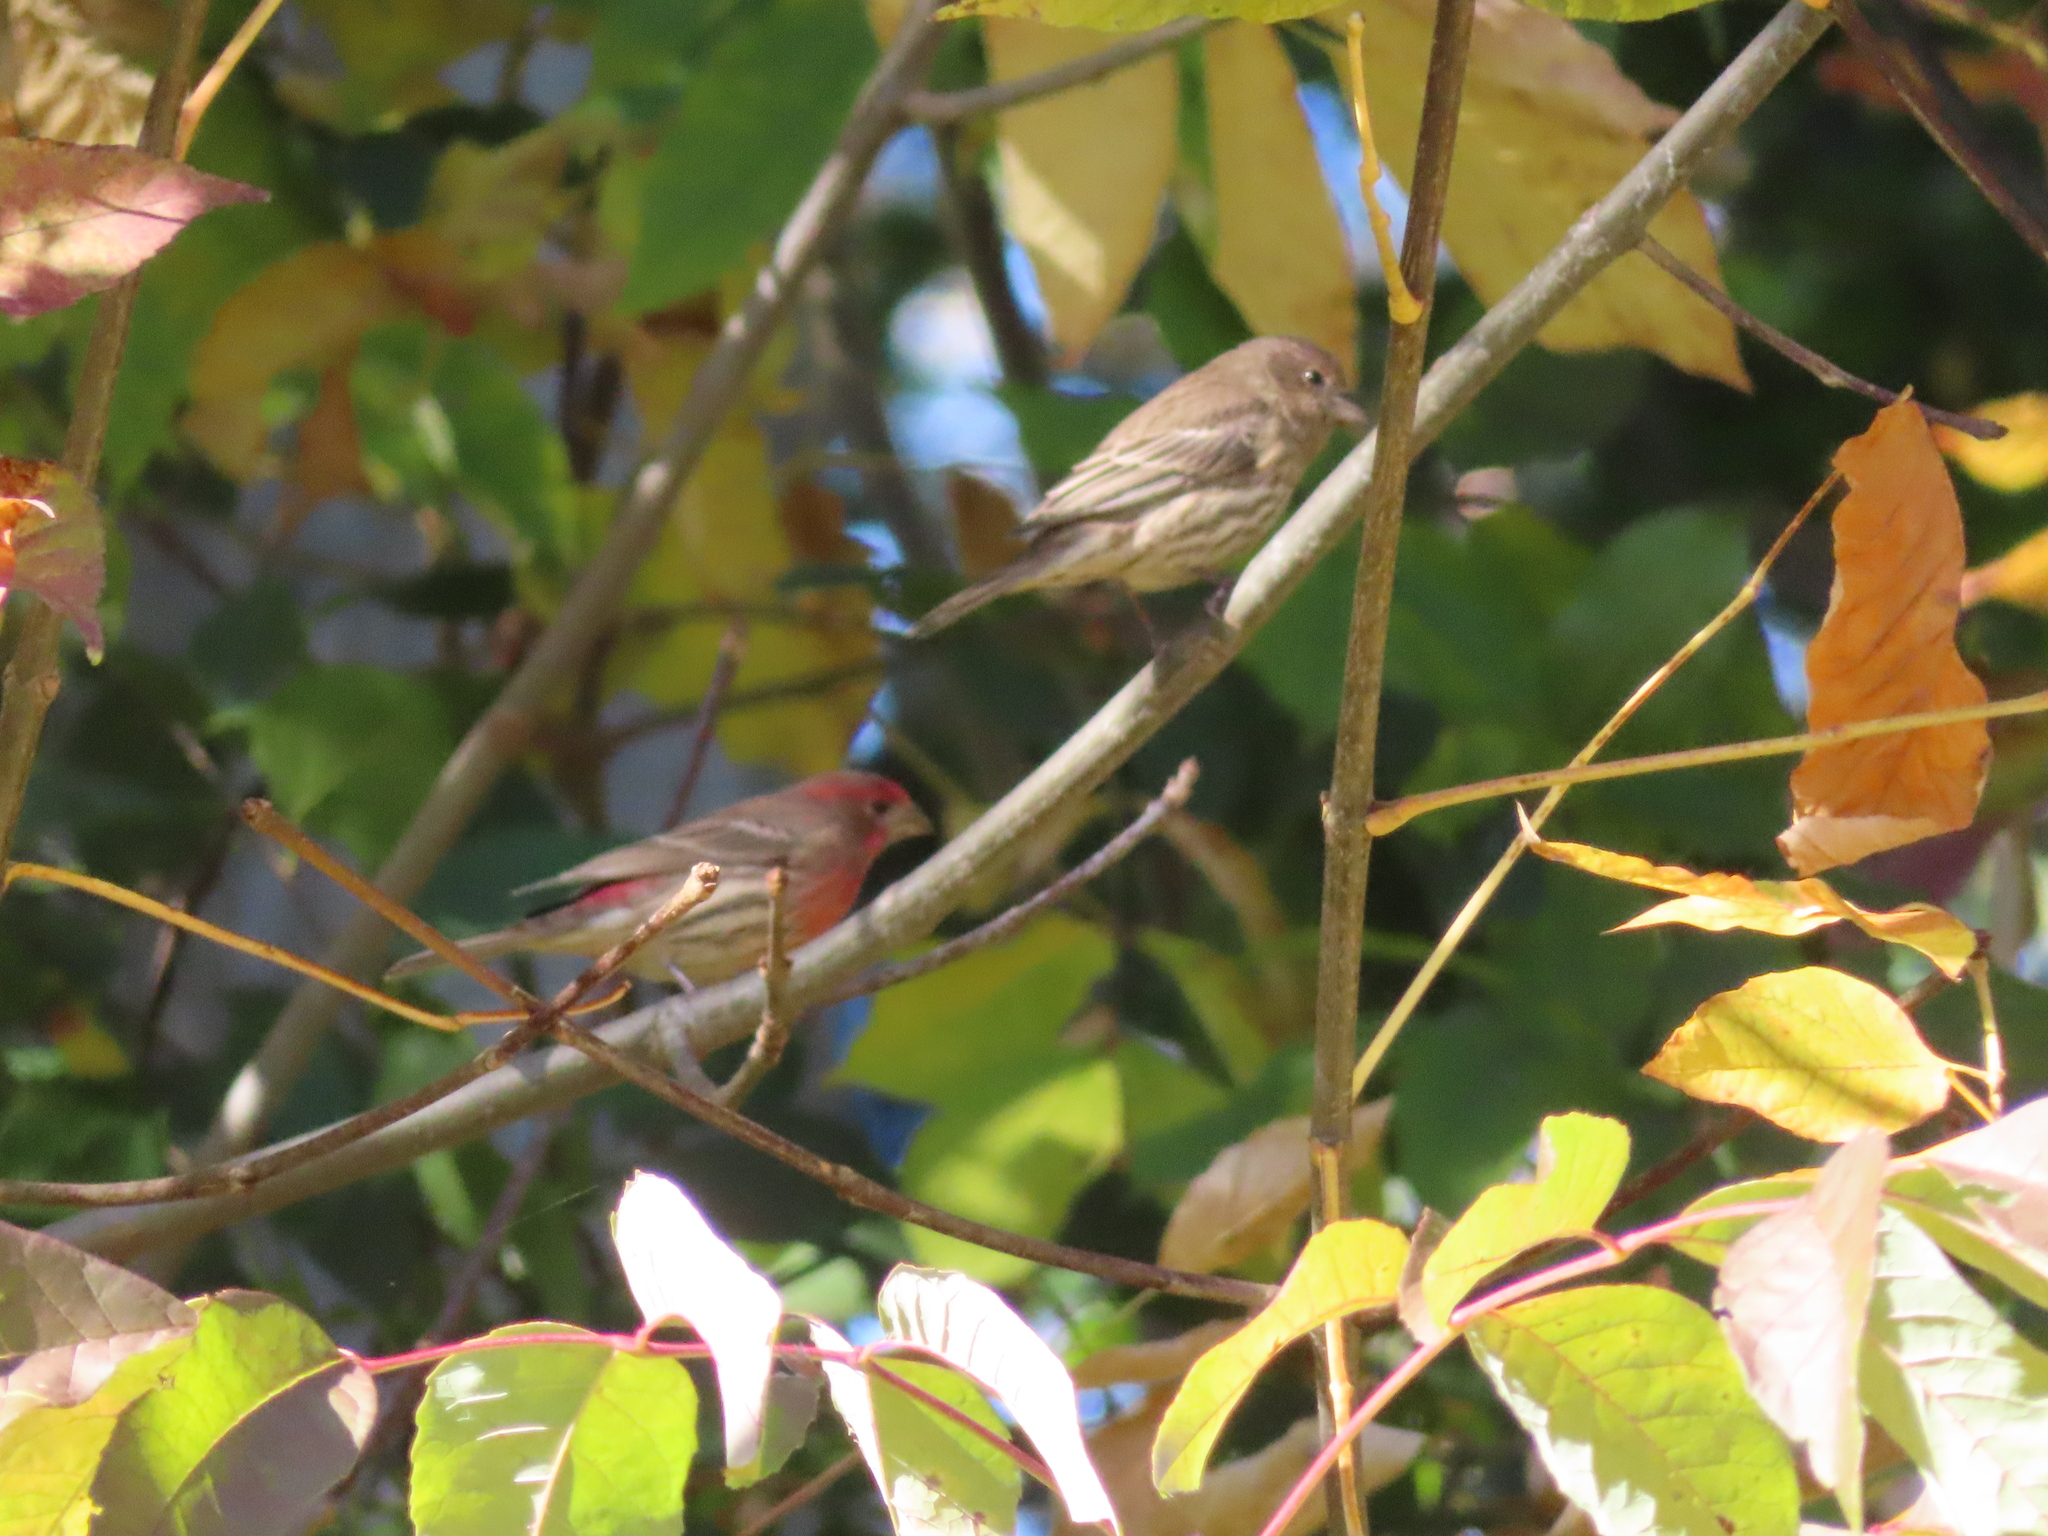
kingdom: Animalia
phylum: Chordata
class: Aves
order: Passeriformes
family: Fringillidae
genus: Haemorhous
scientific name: Haemorhous mexicanus
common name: House finch
